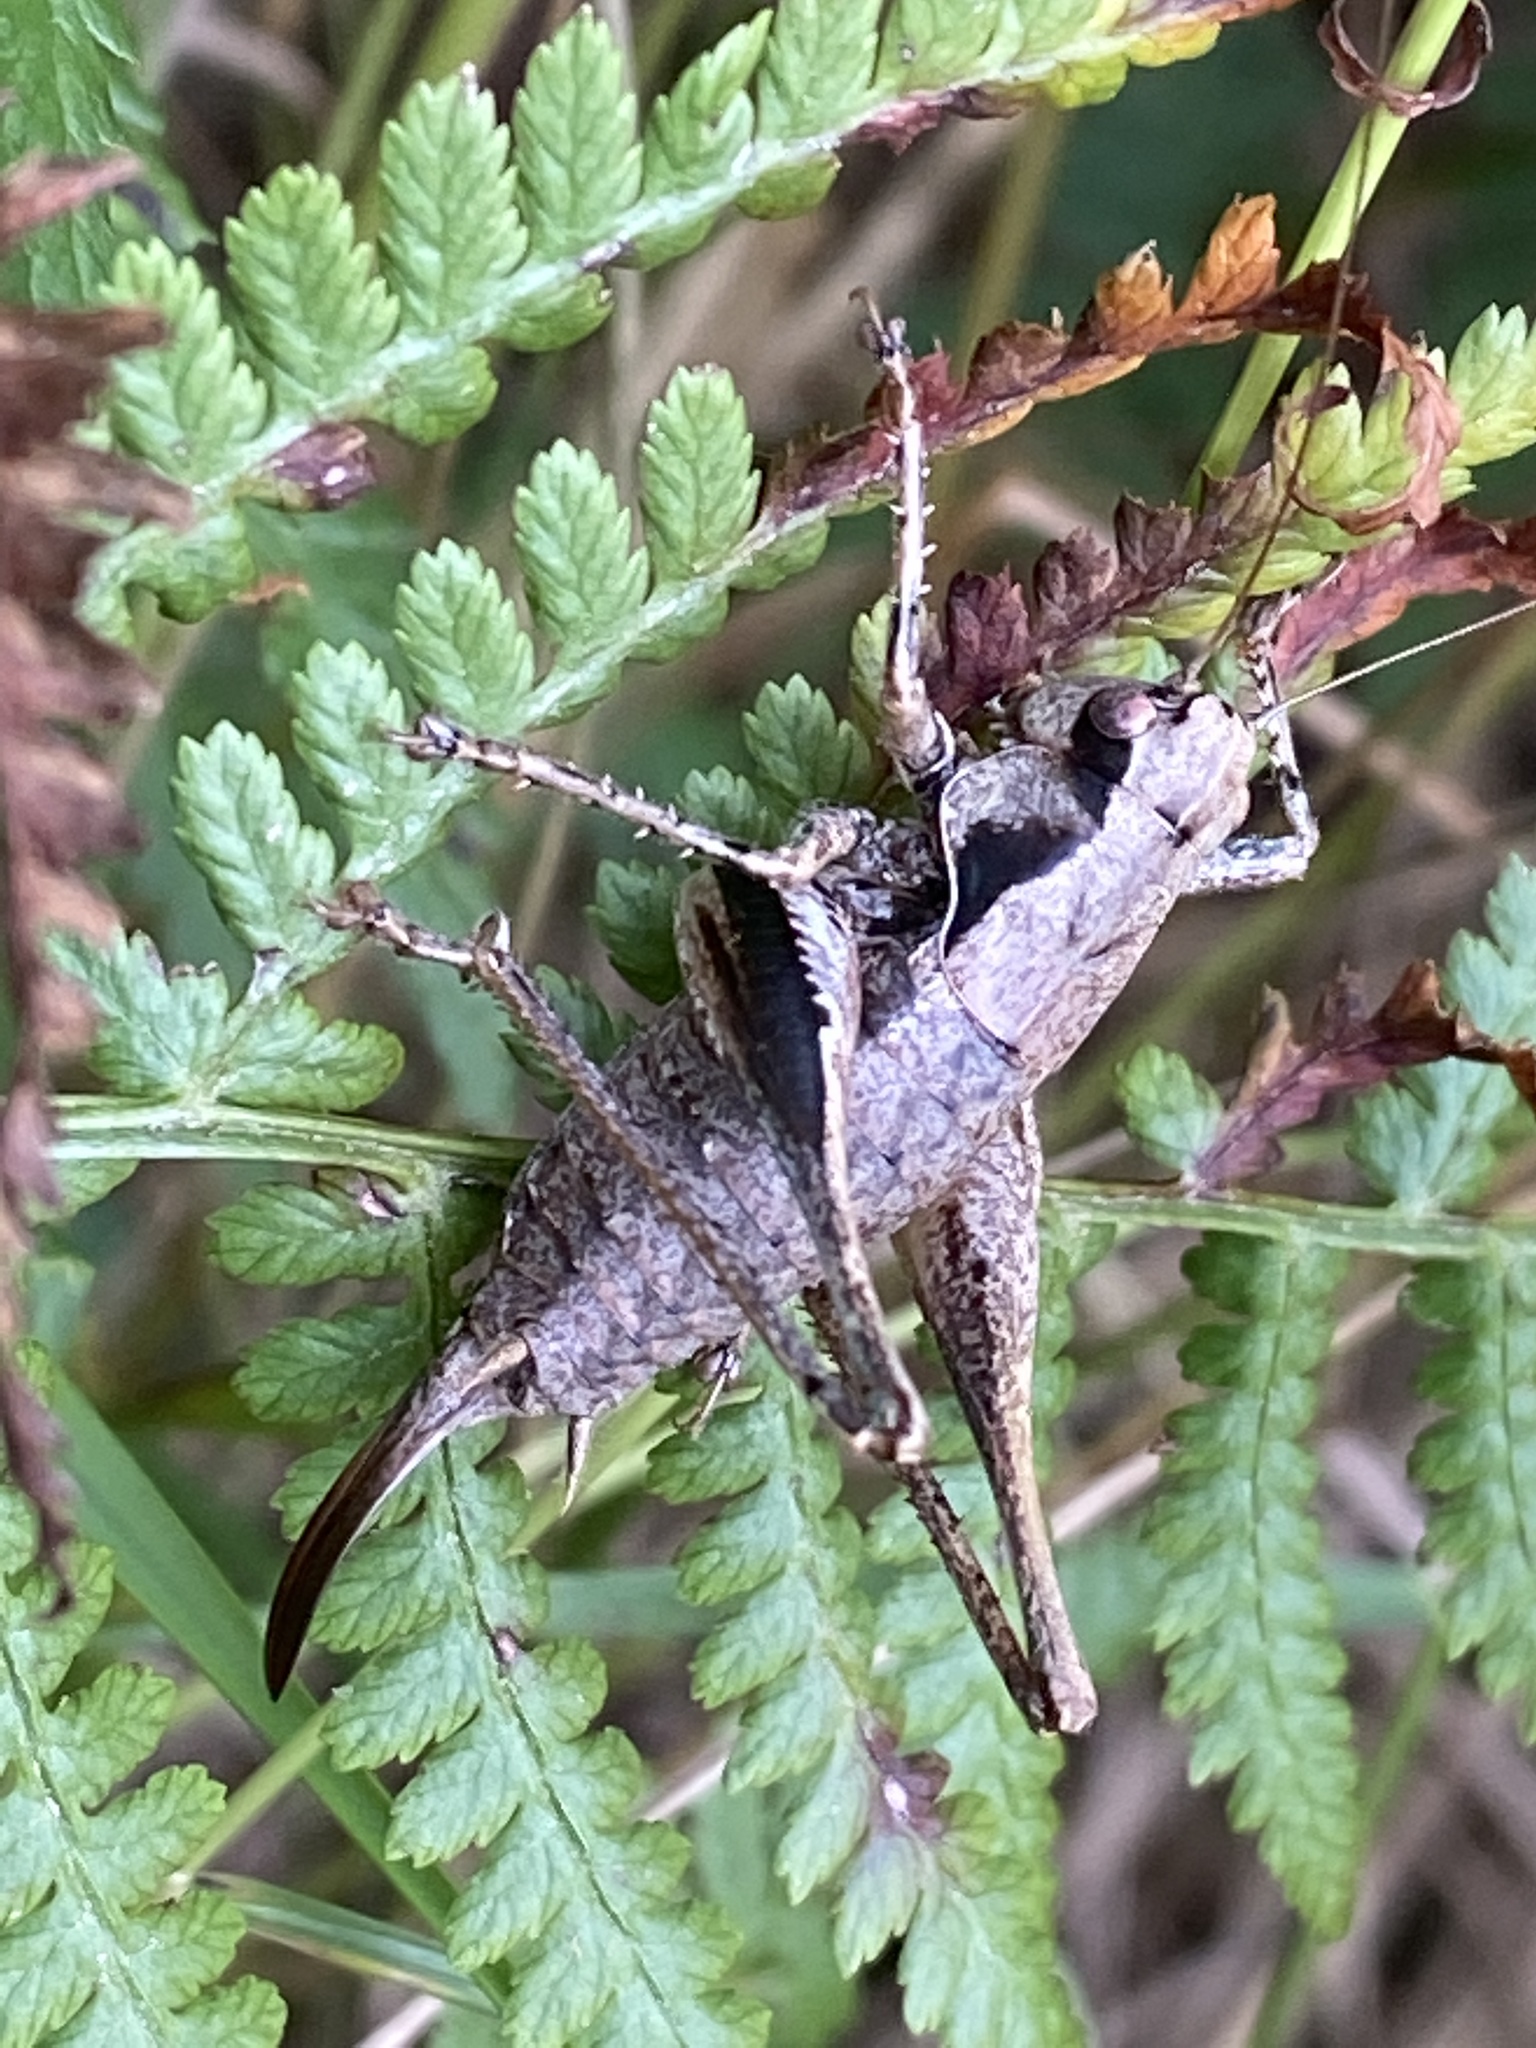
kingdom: Animalia
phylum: Arthropoda
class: Insecta
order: Orthoptera
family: Tettigoniidae
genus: Pholidoptera
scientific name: Pholidoptera griseoaptera
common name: Dark bush-cricket
